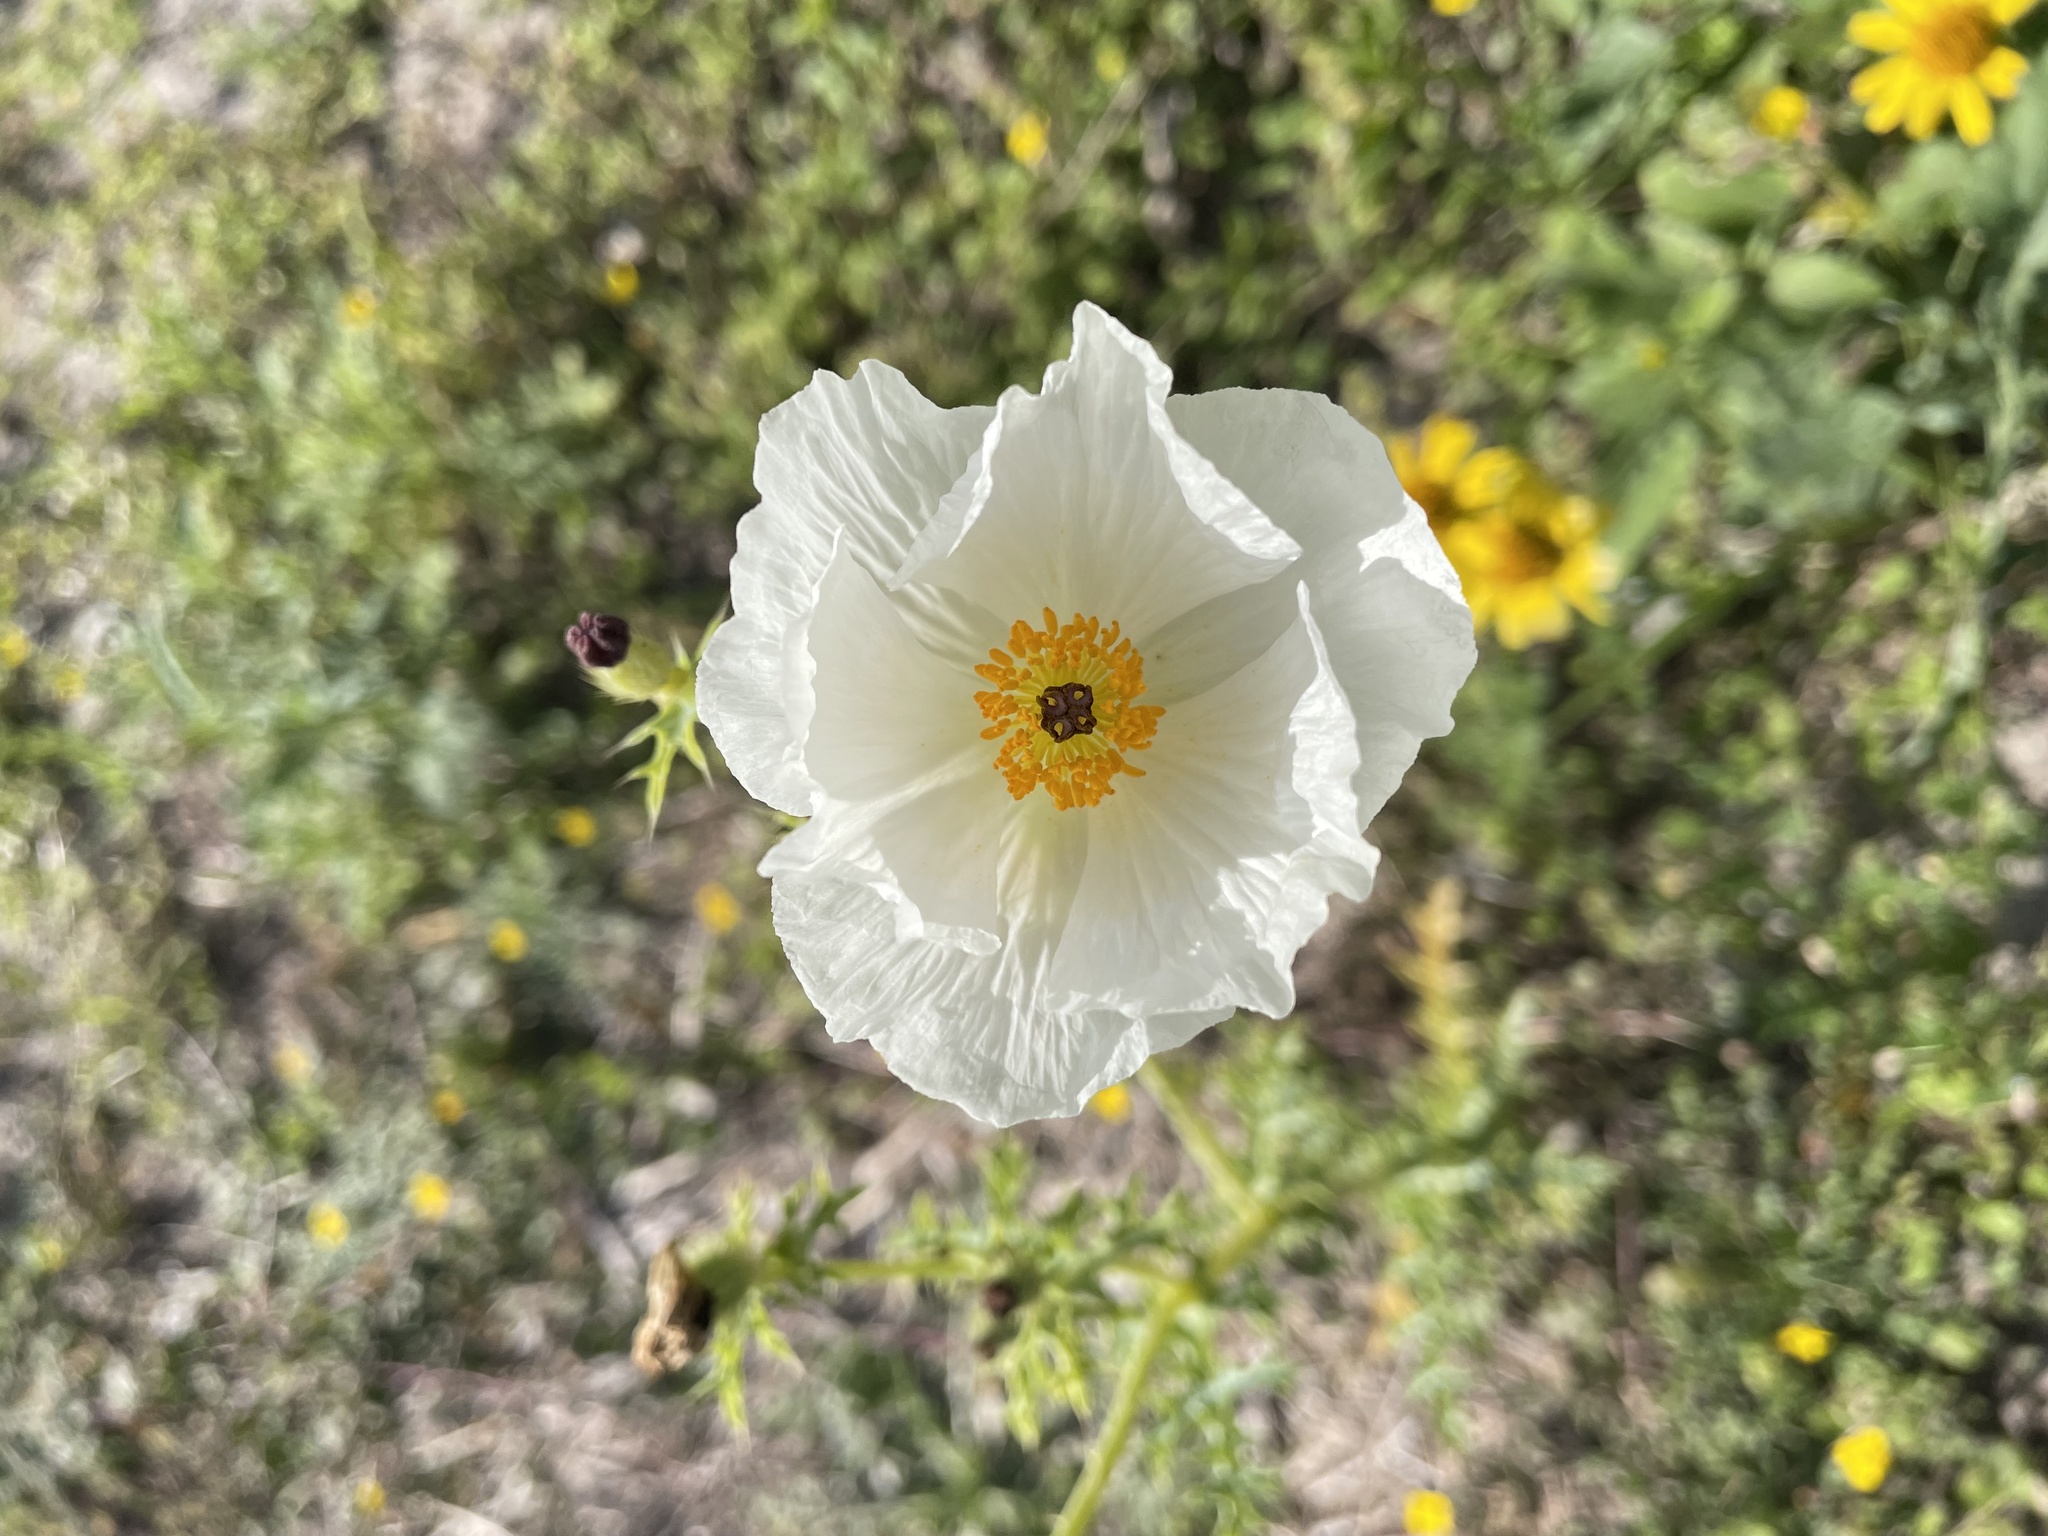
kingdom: Plantae
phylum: Tracheophyta
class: Magnoliopsida
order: Ranunculales
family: Papaveraceae
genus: Argemone
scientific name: Argemone albiflora
